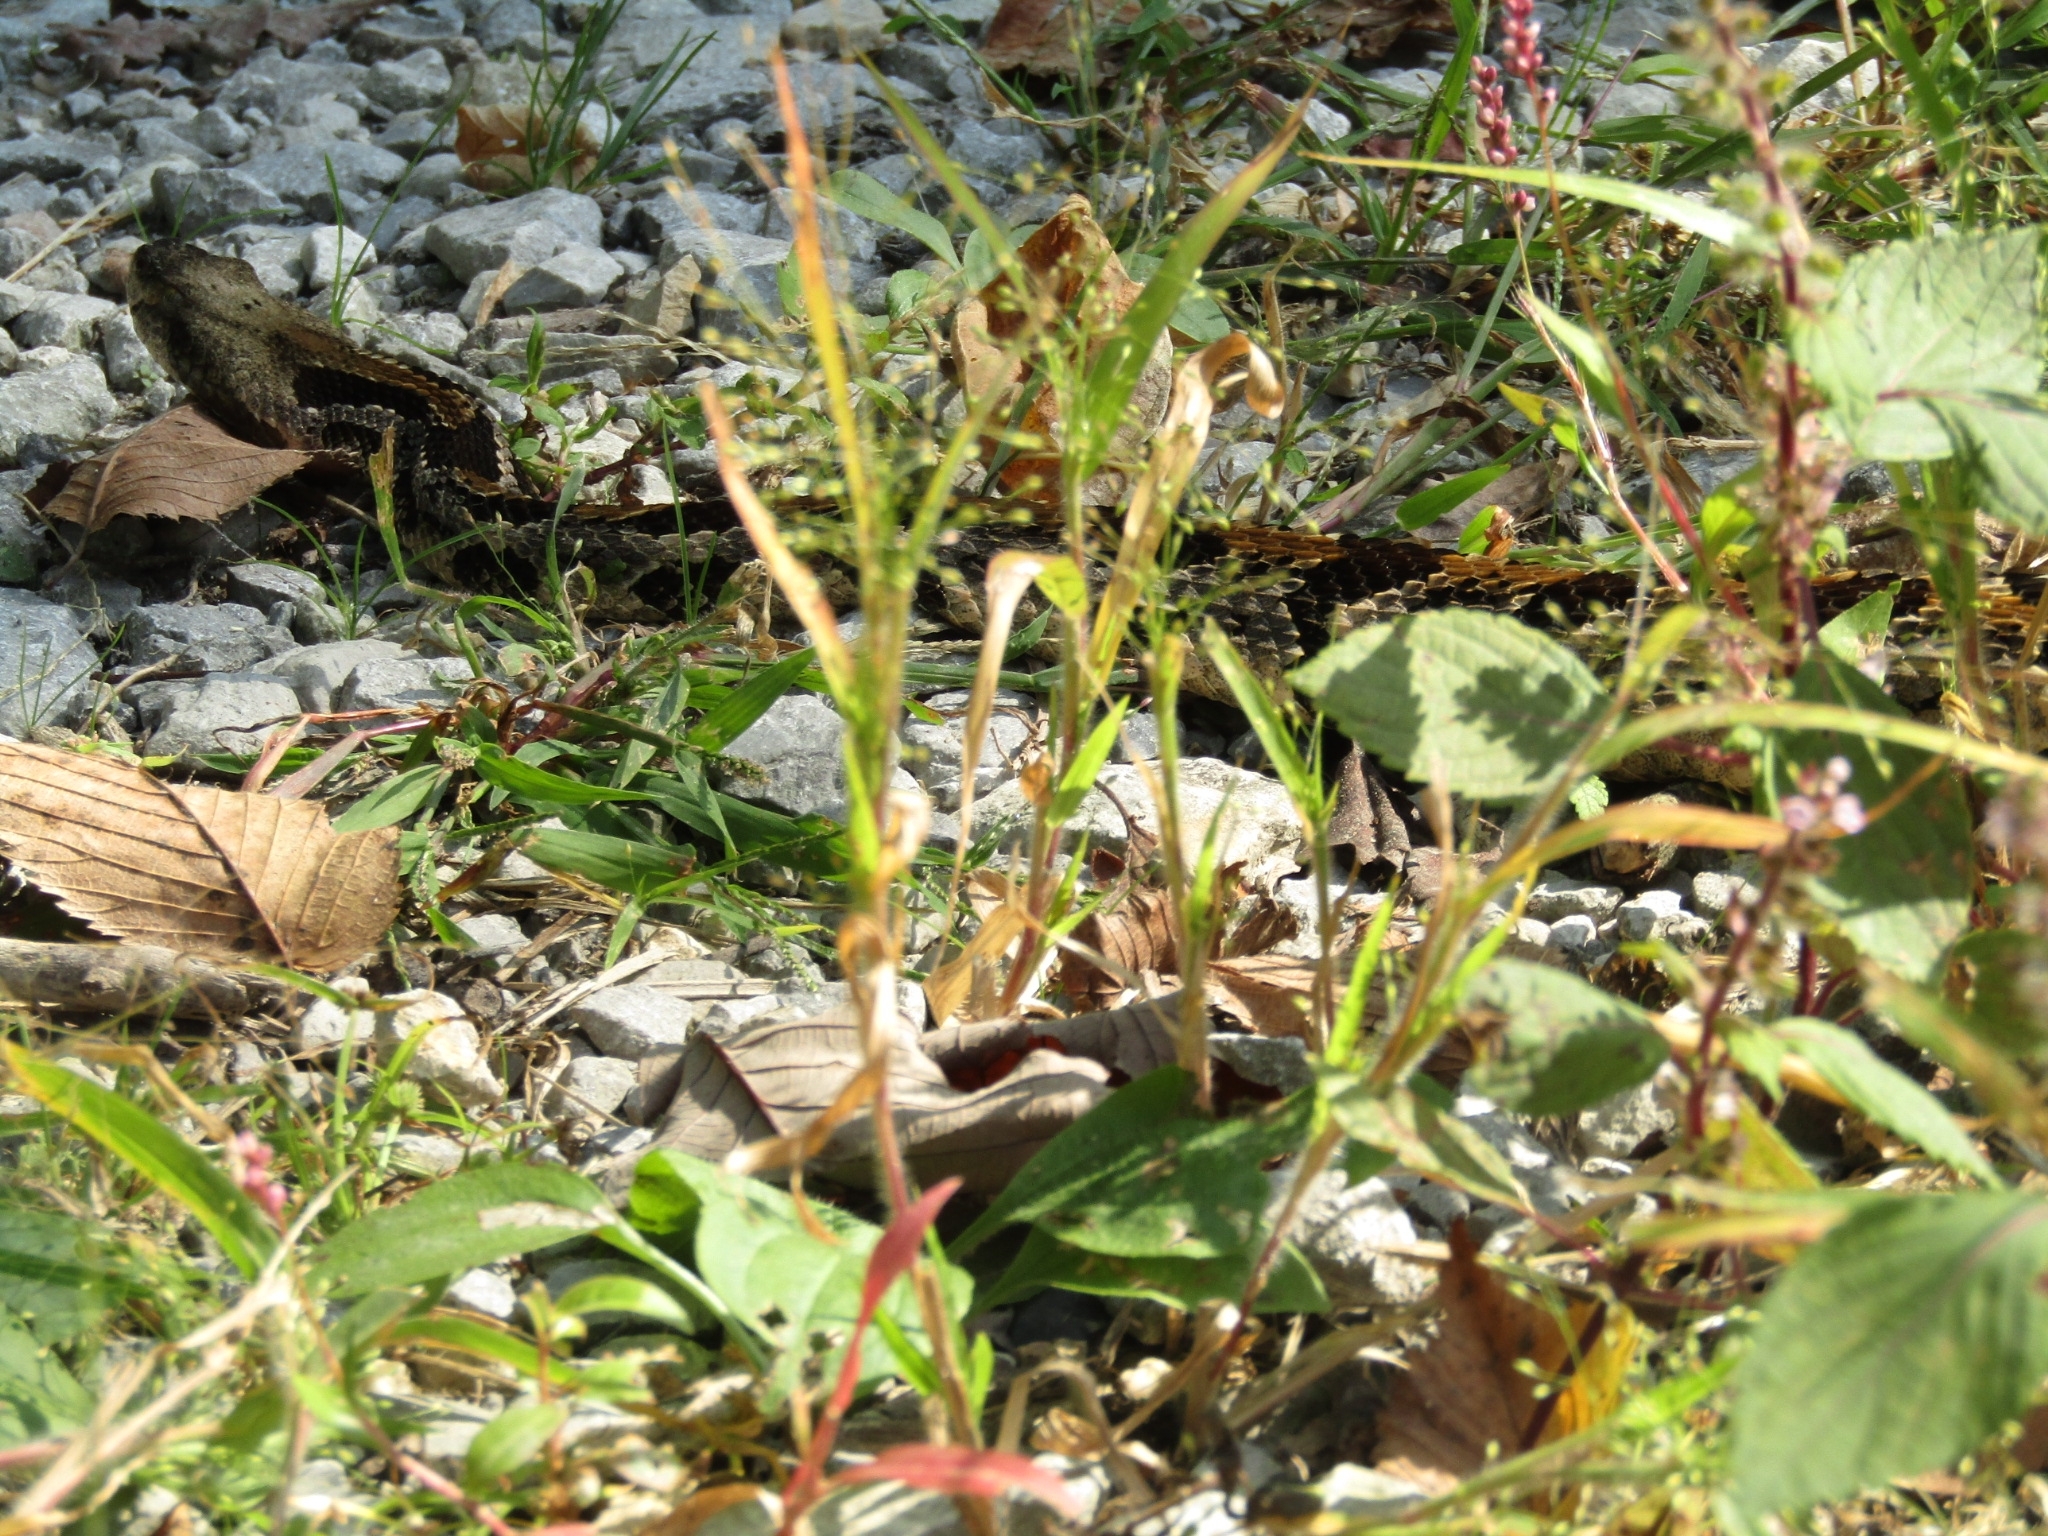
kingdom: Animalia
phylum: Chordata
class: Squamata
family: Viperidae
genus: Crotalus
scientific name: Crotalus horridus
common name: Timber rattlesnake
